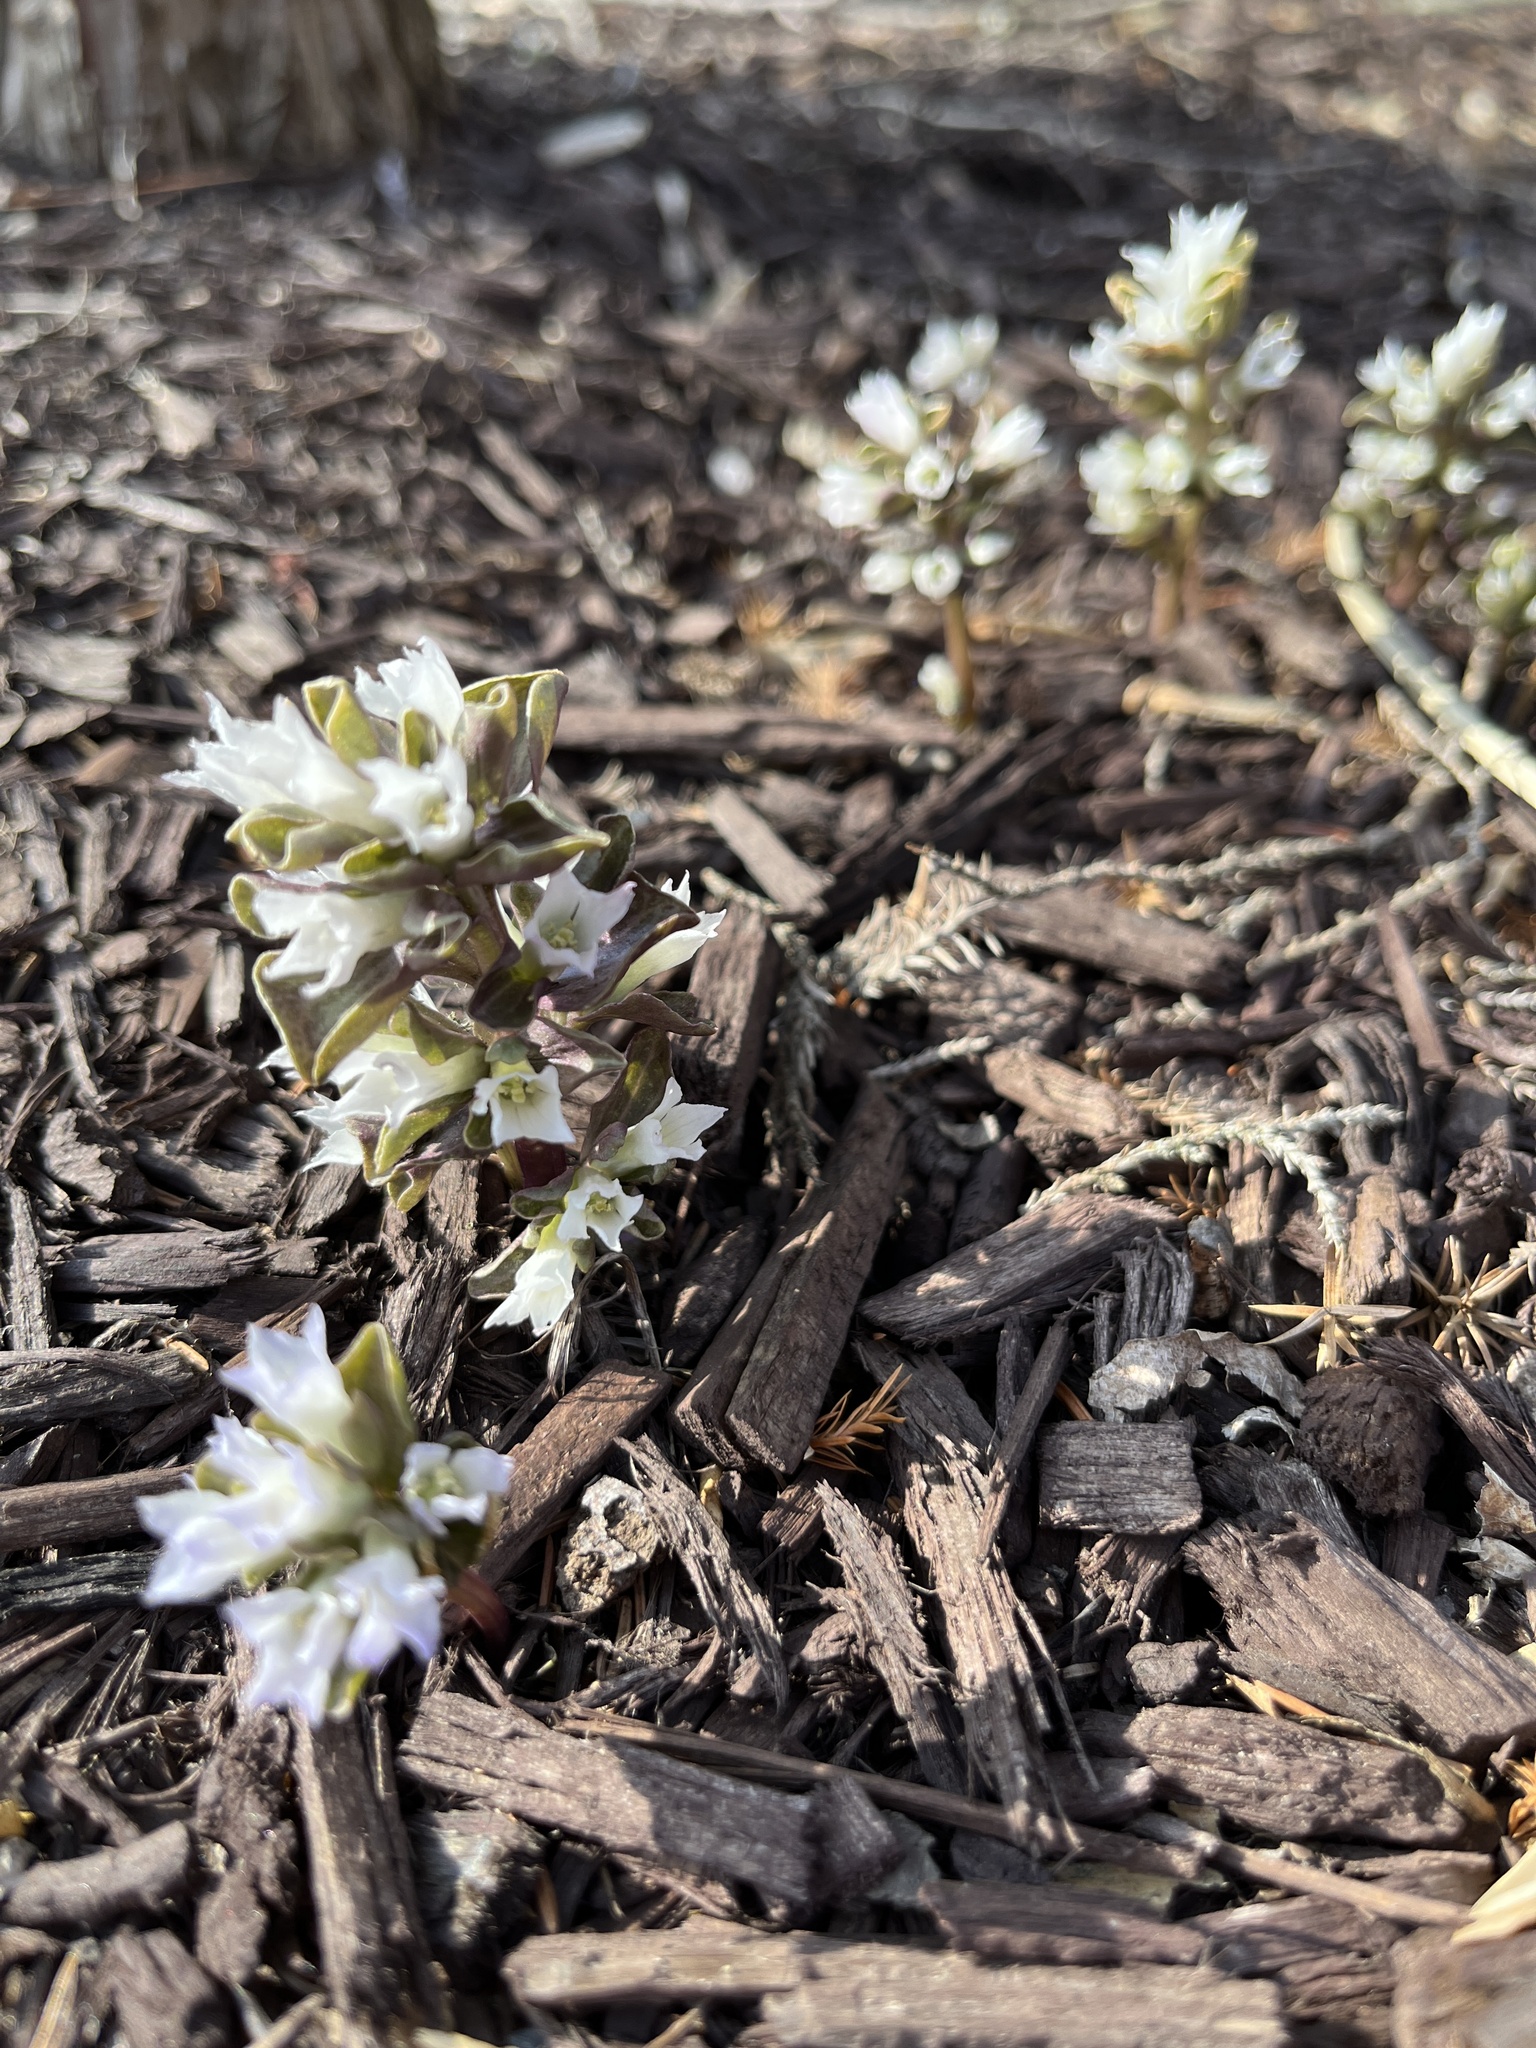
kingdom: Plantae
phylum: Tracheophyta
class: Magnoliopsida
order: Gentianales
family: Gentianaceae
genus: Obolaria
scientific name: Obolaria virginica
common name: Pennywort
